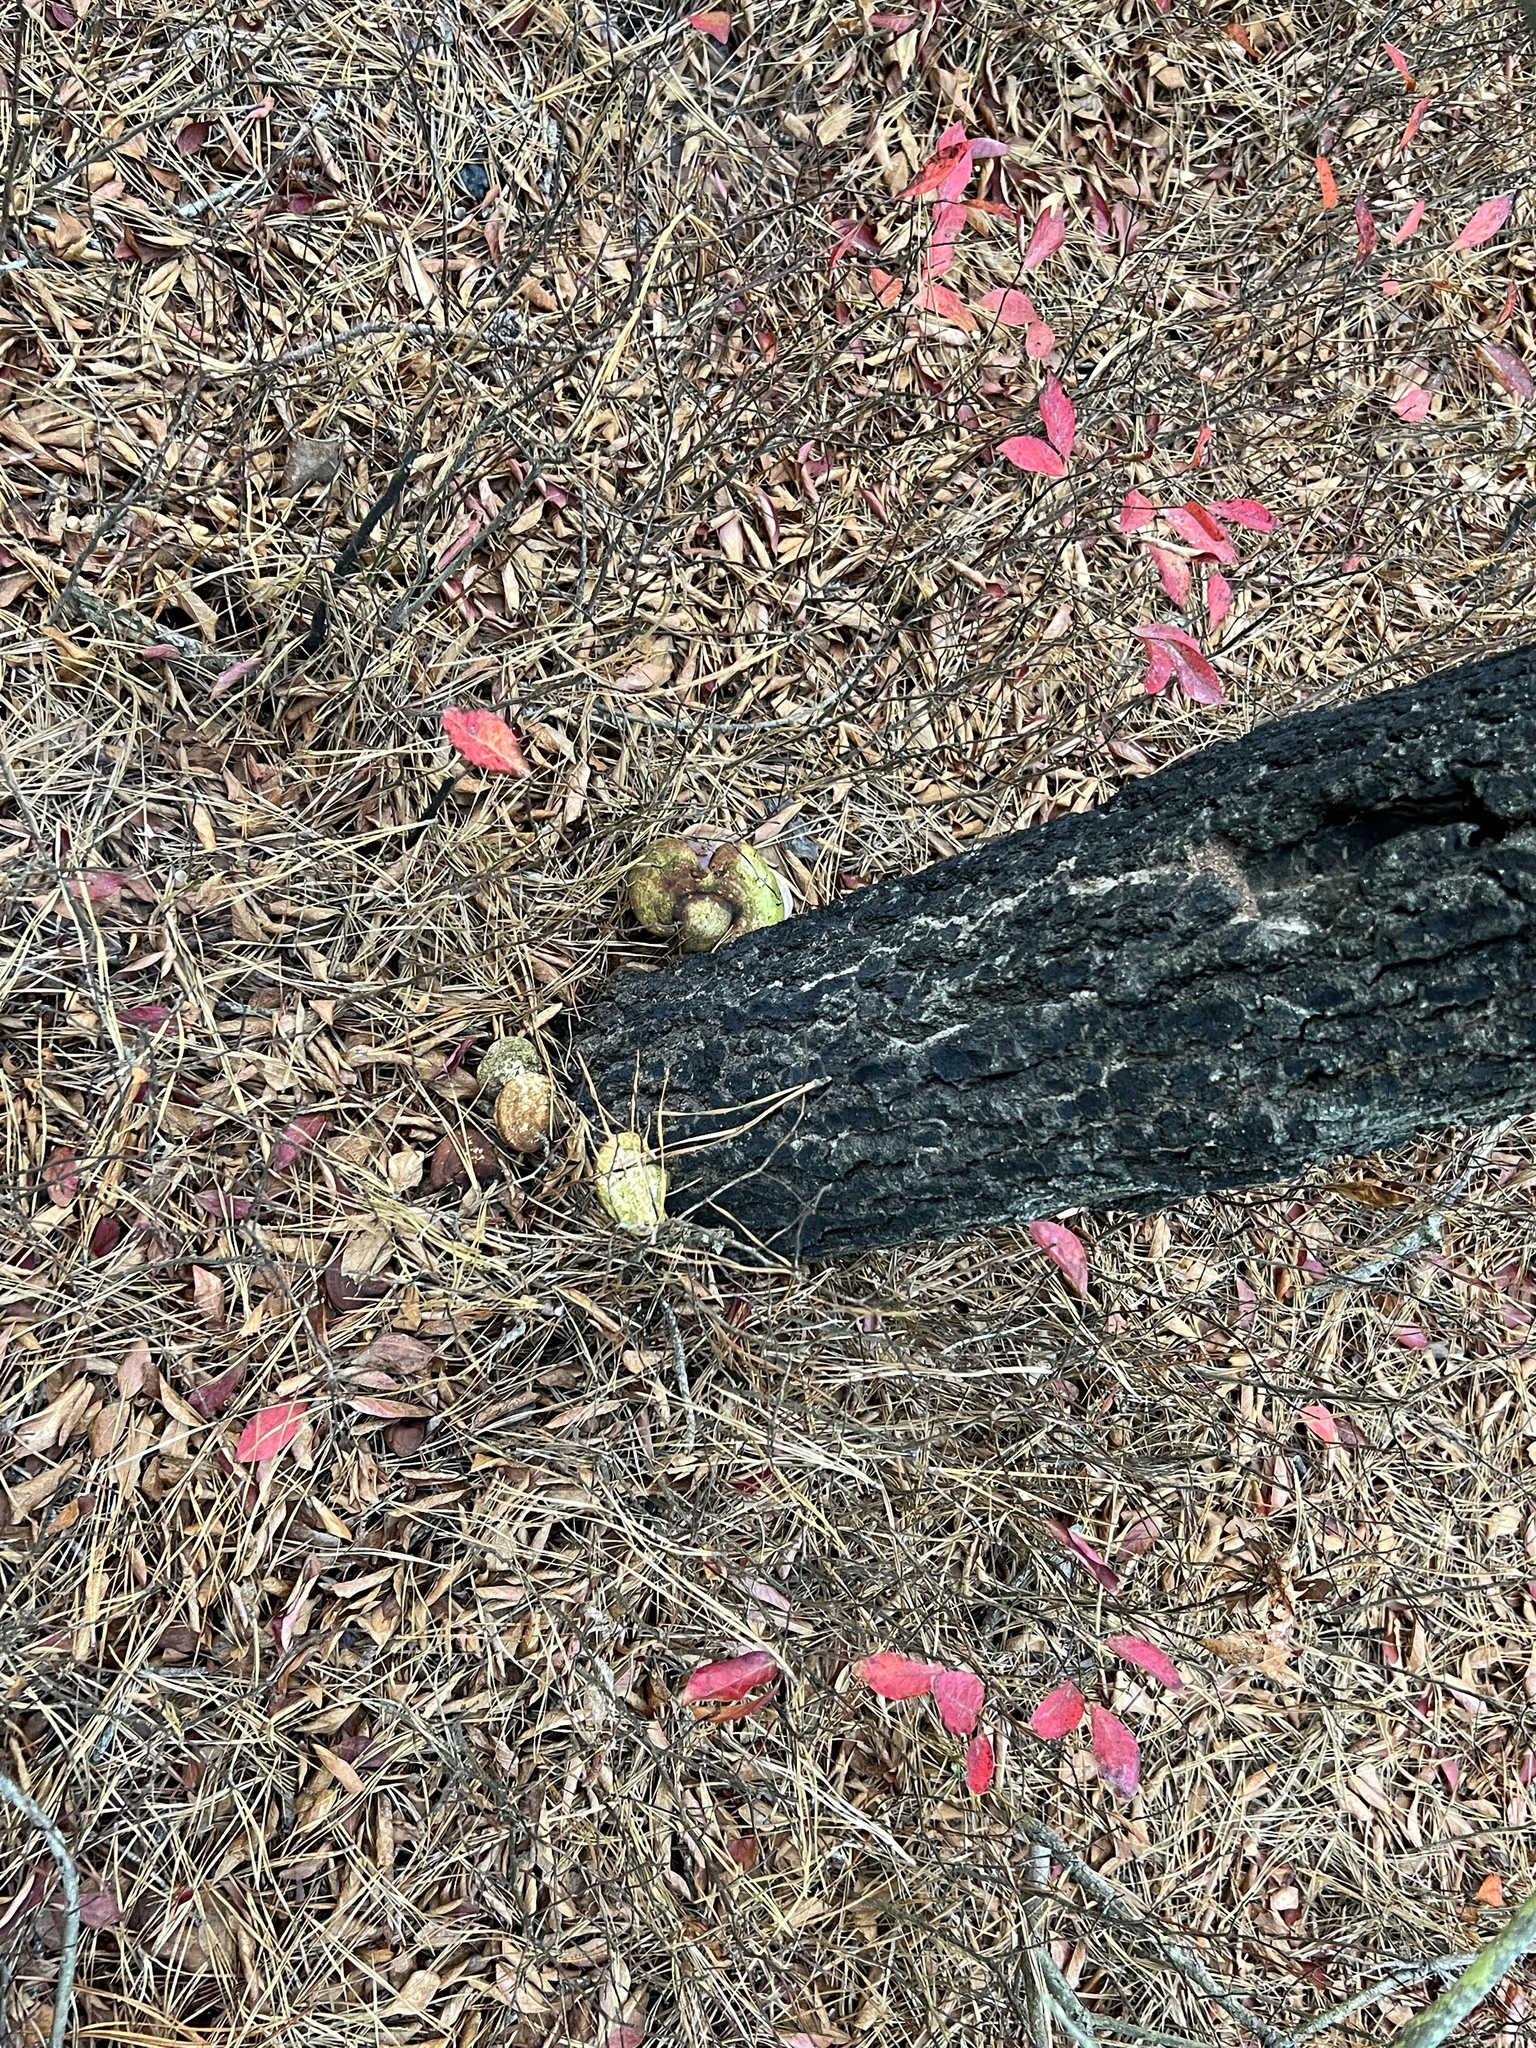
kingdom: Fungi
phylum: Basidiomycota
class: Agaricomycetes
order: Polyporales
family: Polyporaceae
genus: Ganoderma
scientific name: Ganoderma curtisii
